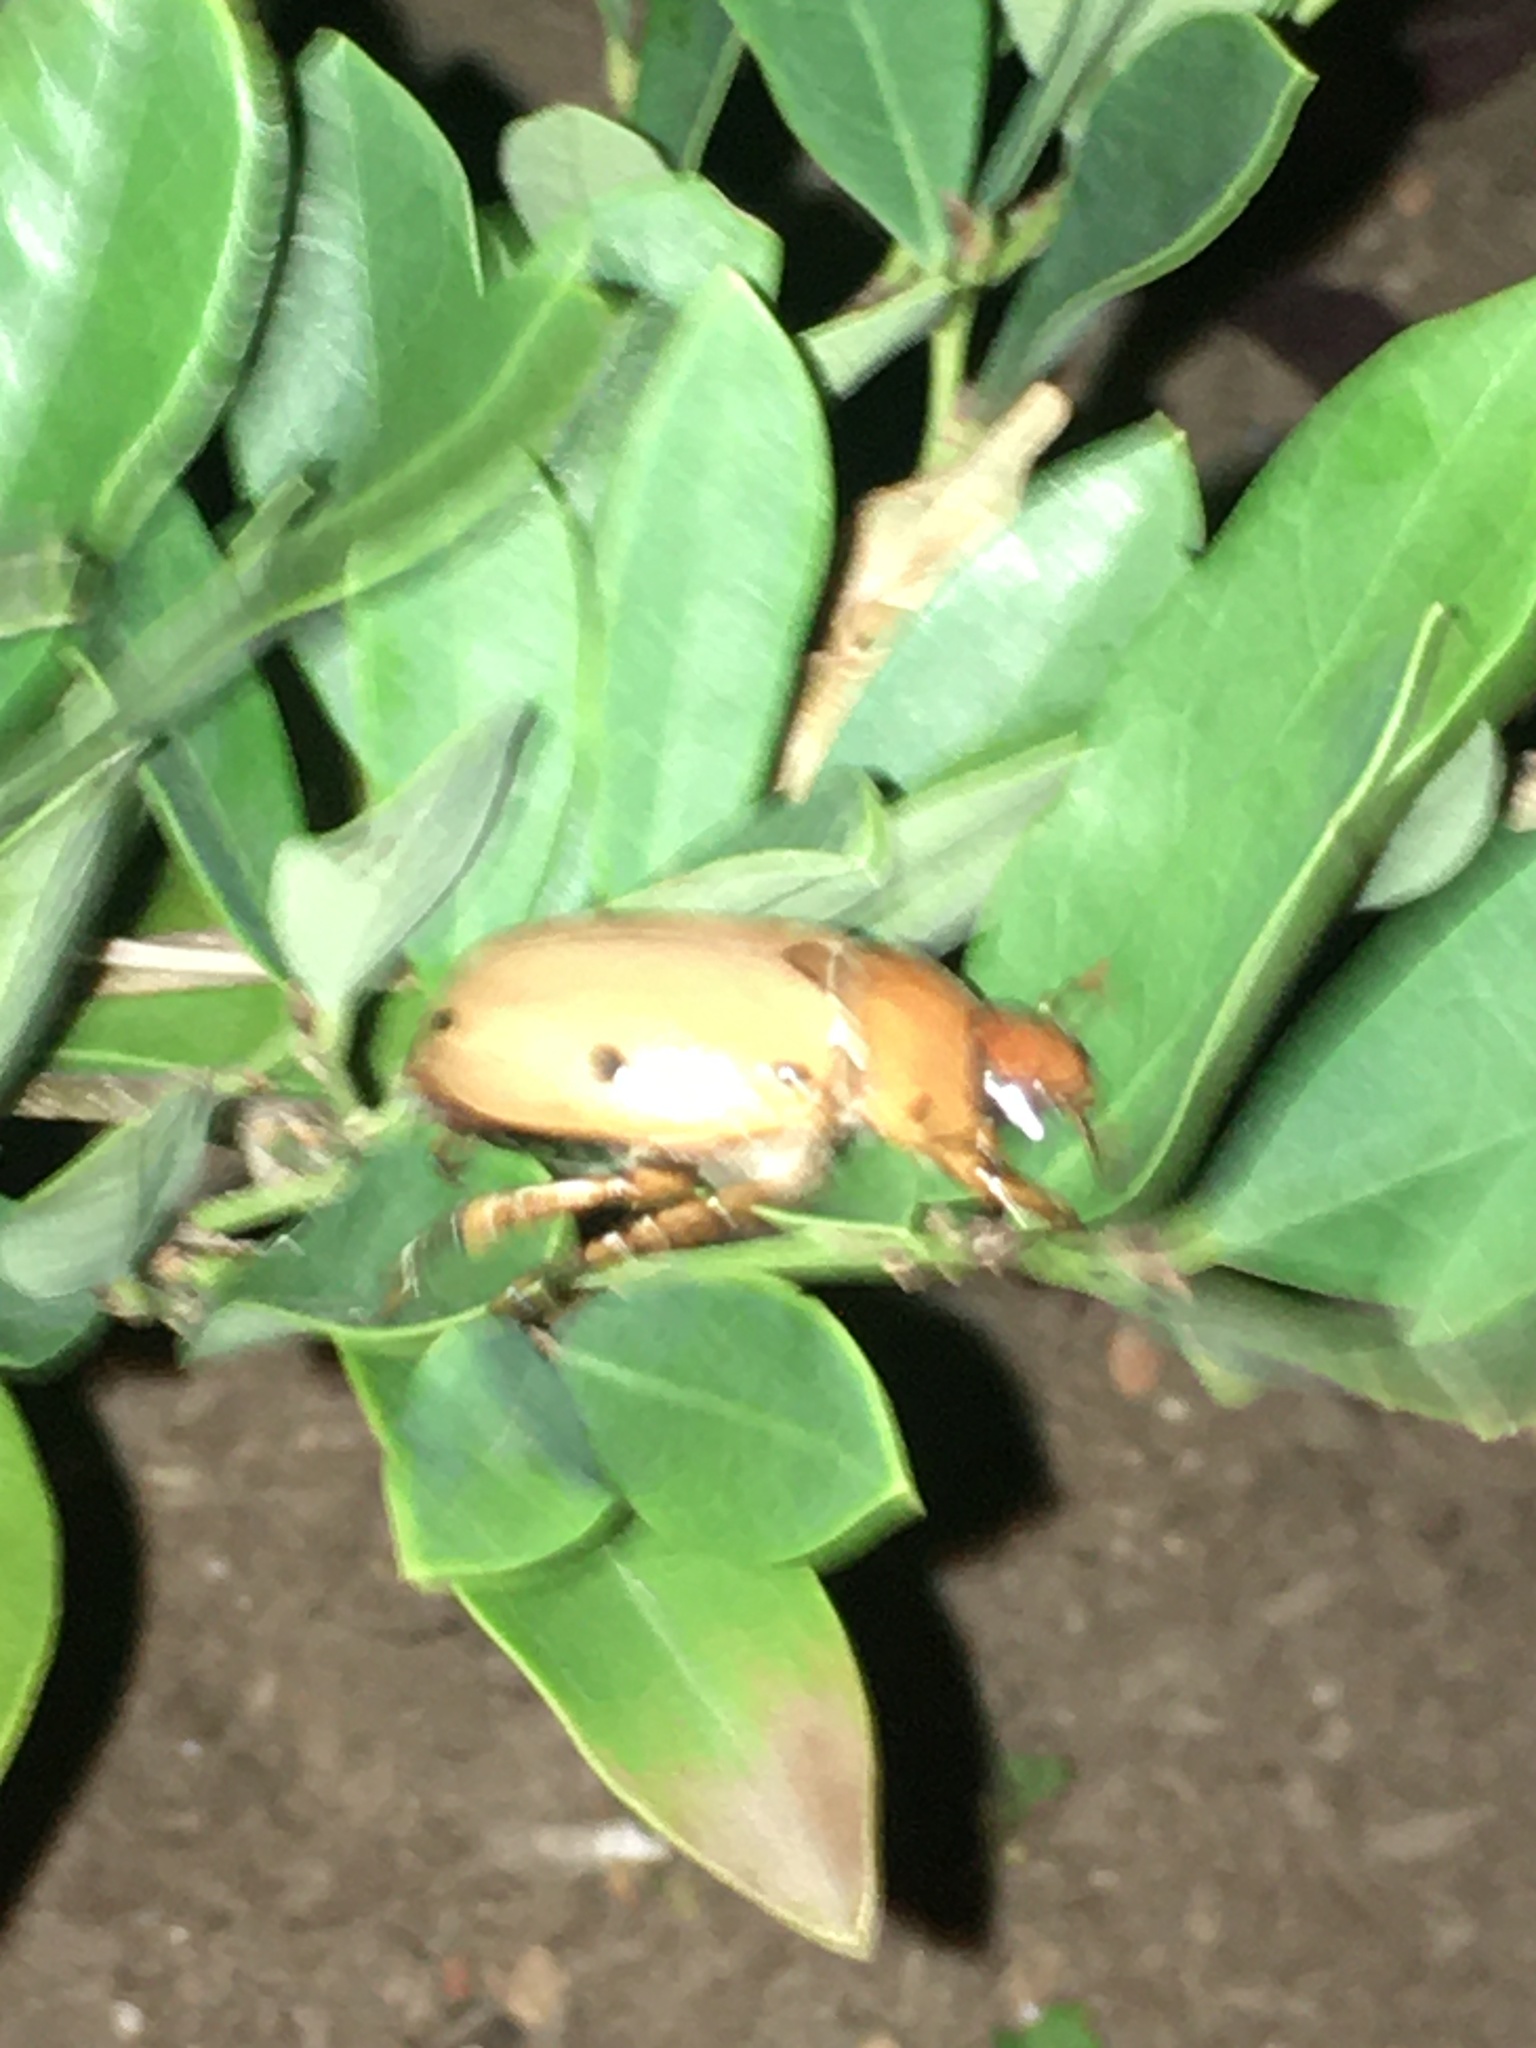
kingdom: Animalia
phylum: Arthropoda
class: Insecta
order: Coleoptera
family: Scarabaeidae
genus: Pelidnota
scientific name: Pelidnota punctata
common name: Grapevine beetle
